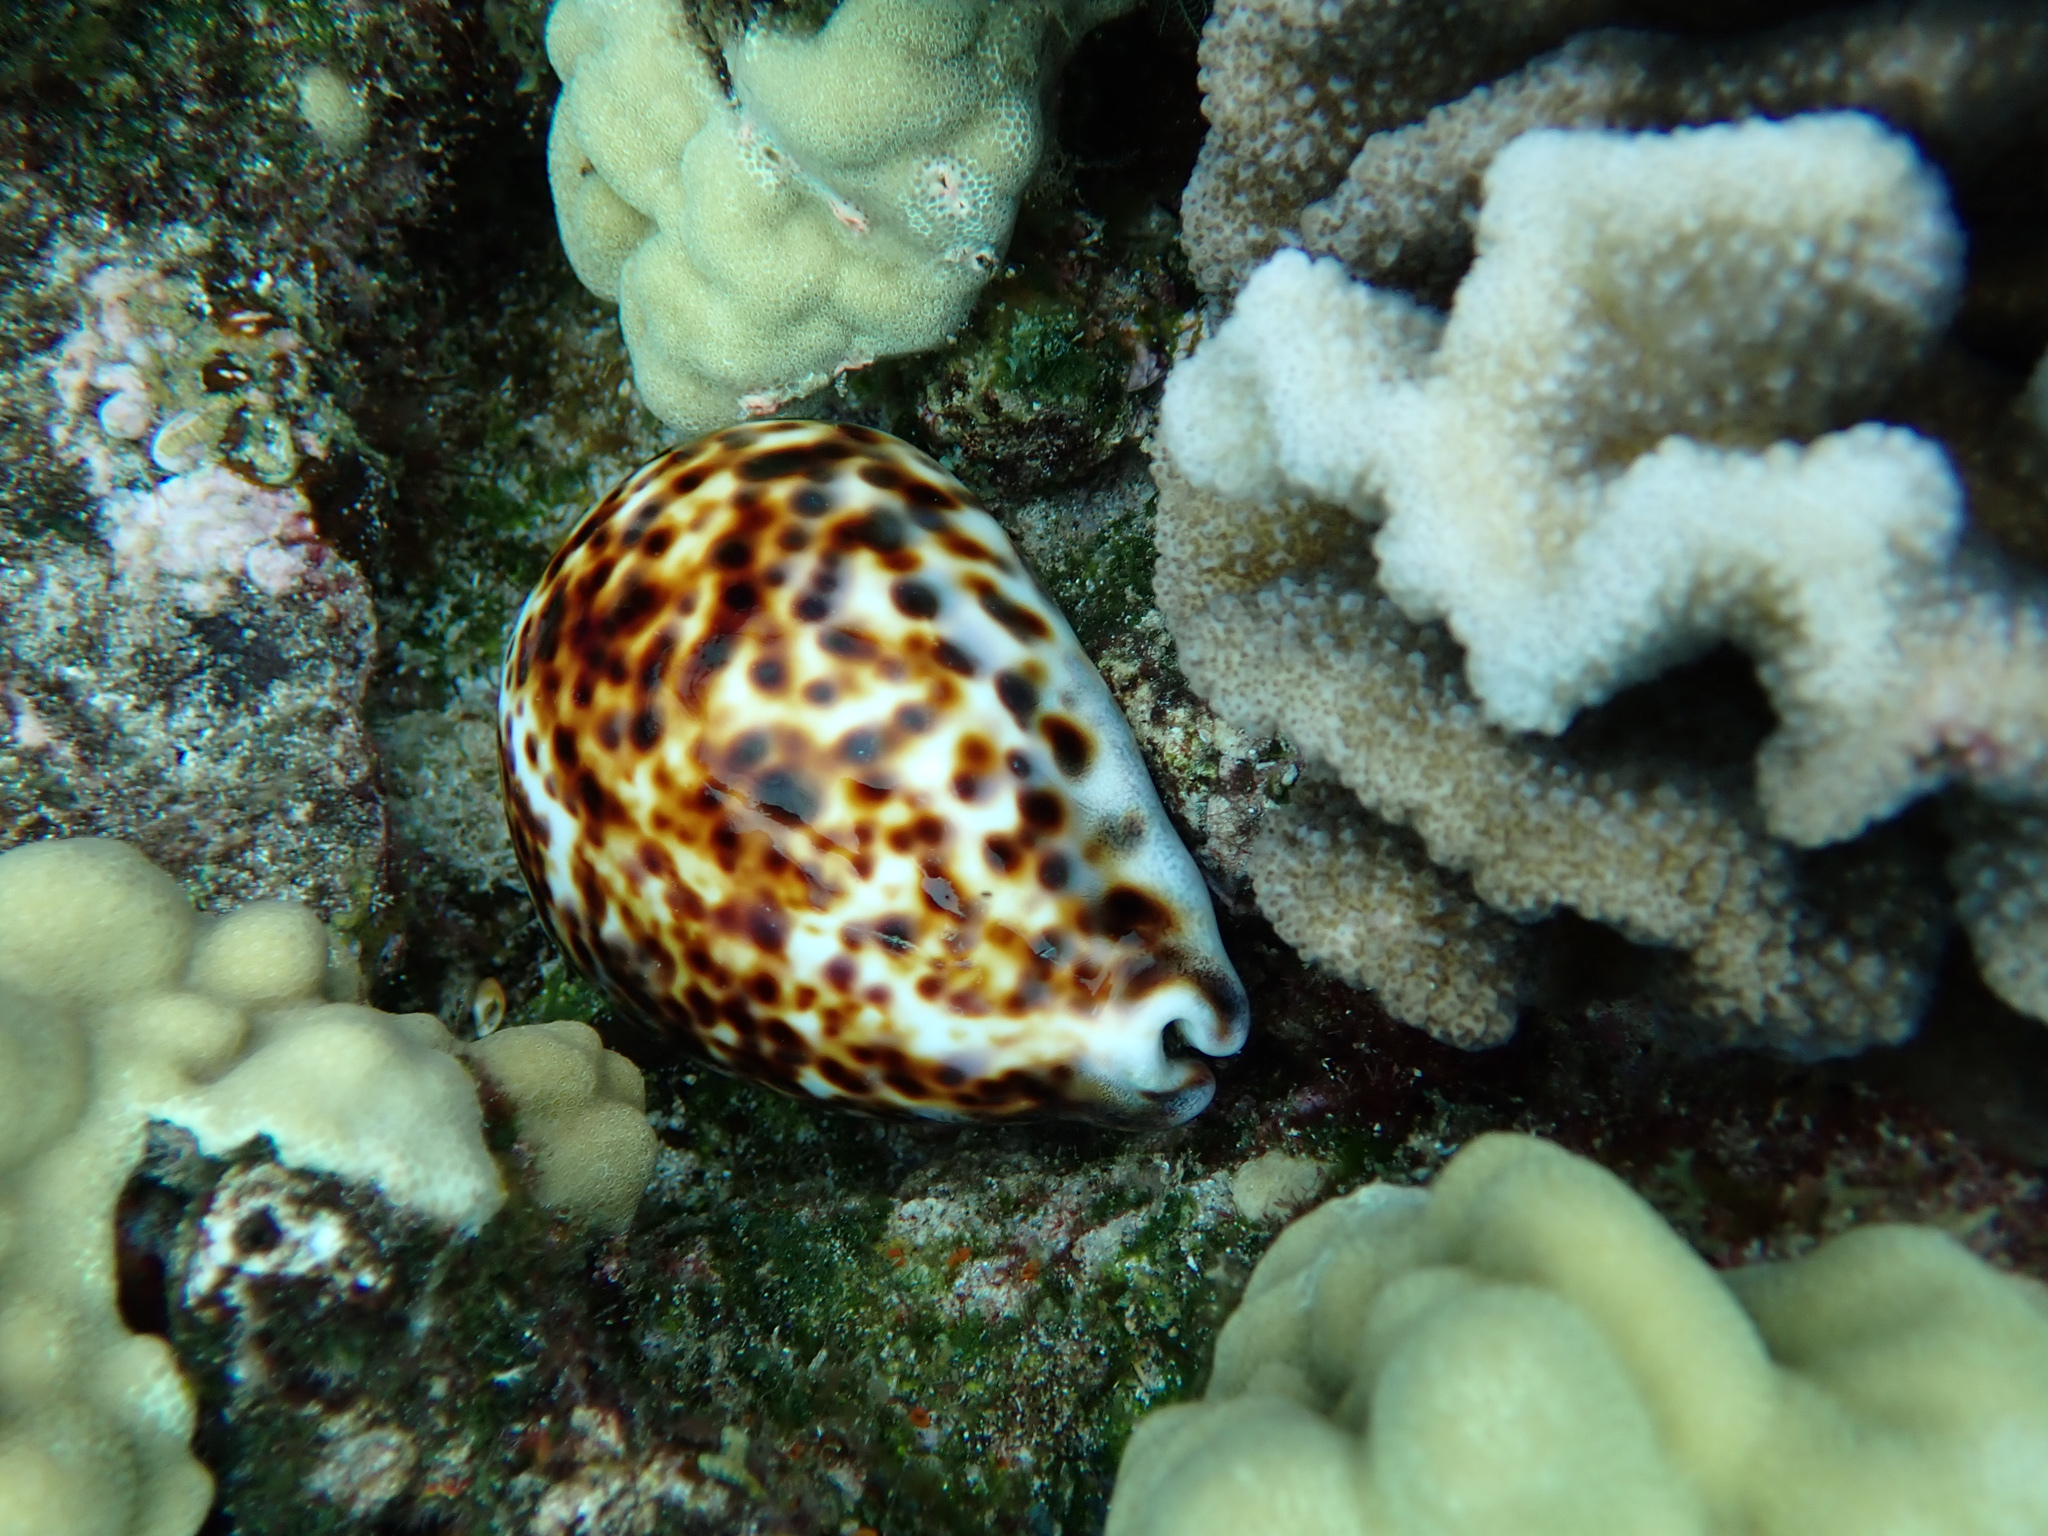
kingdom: Animalia
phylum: Mollusca
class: Gastropoda
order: Littorinimorpha
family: Cypraeidae
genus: Cypraea
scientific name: Cypraea tigris
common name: Tiger cowrie
